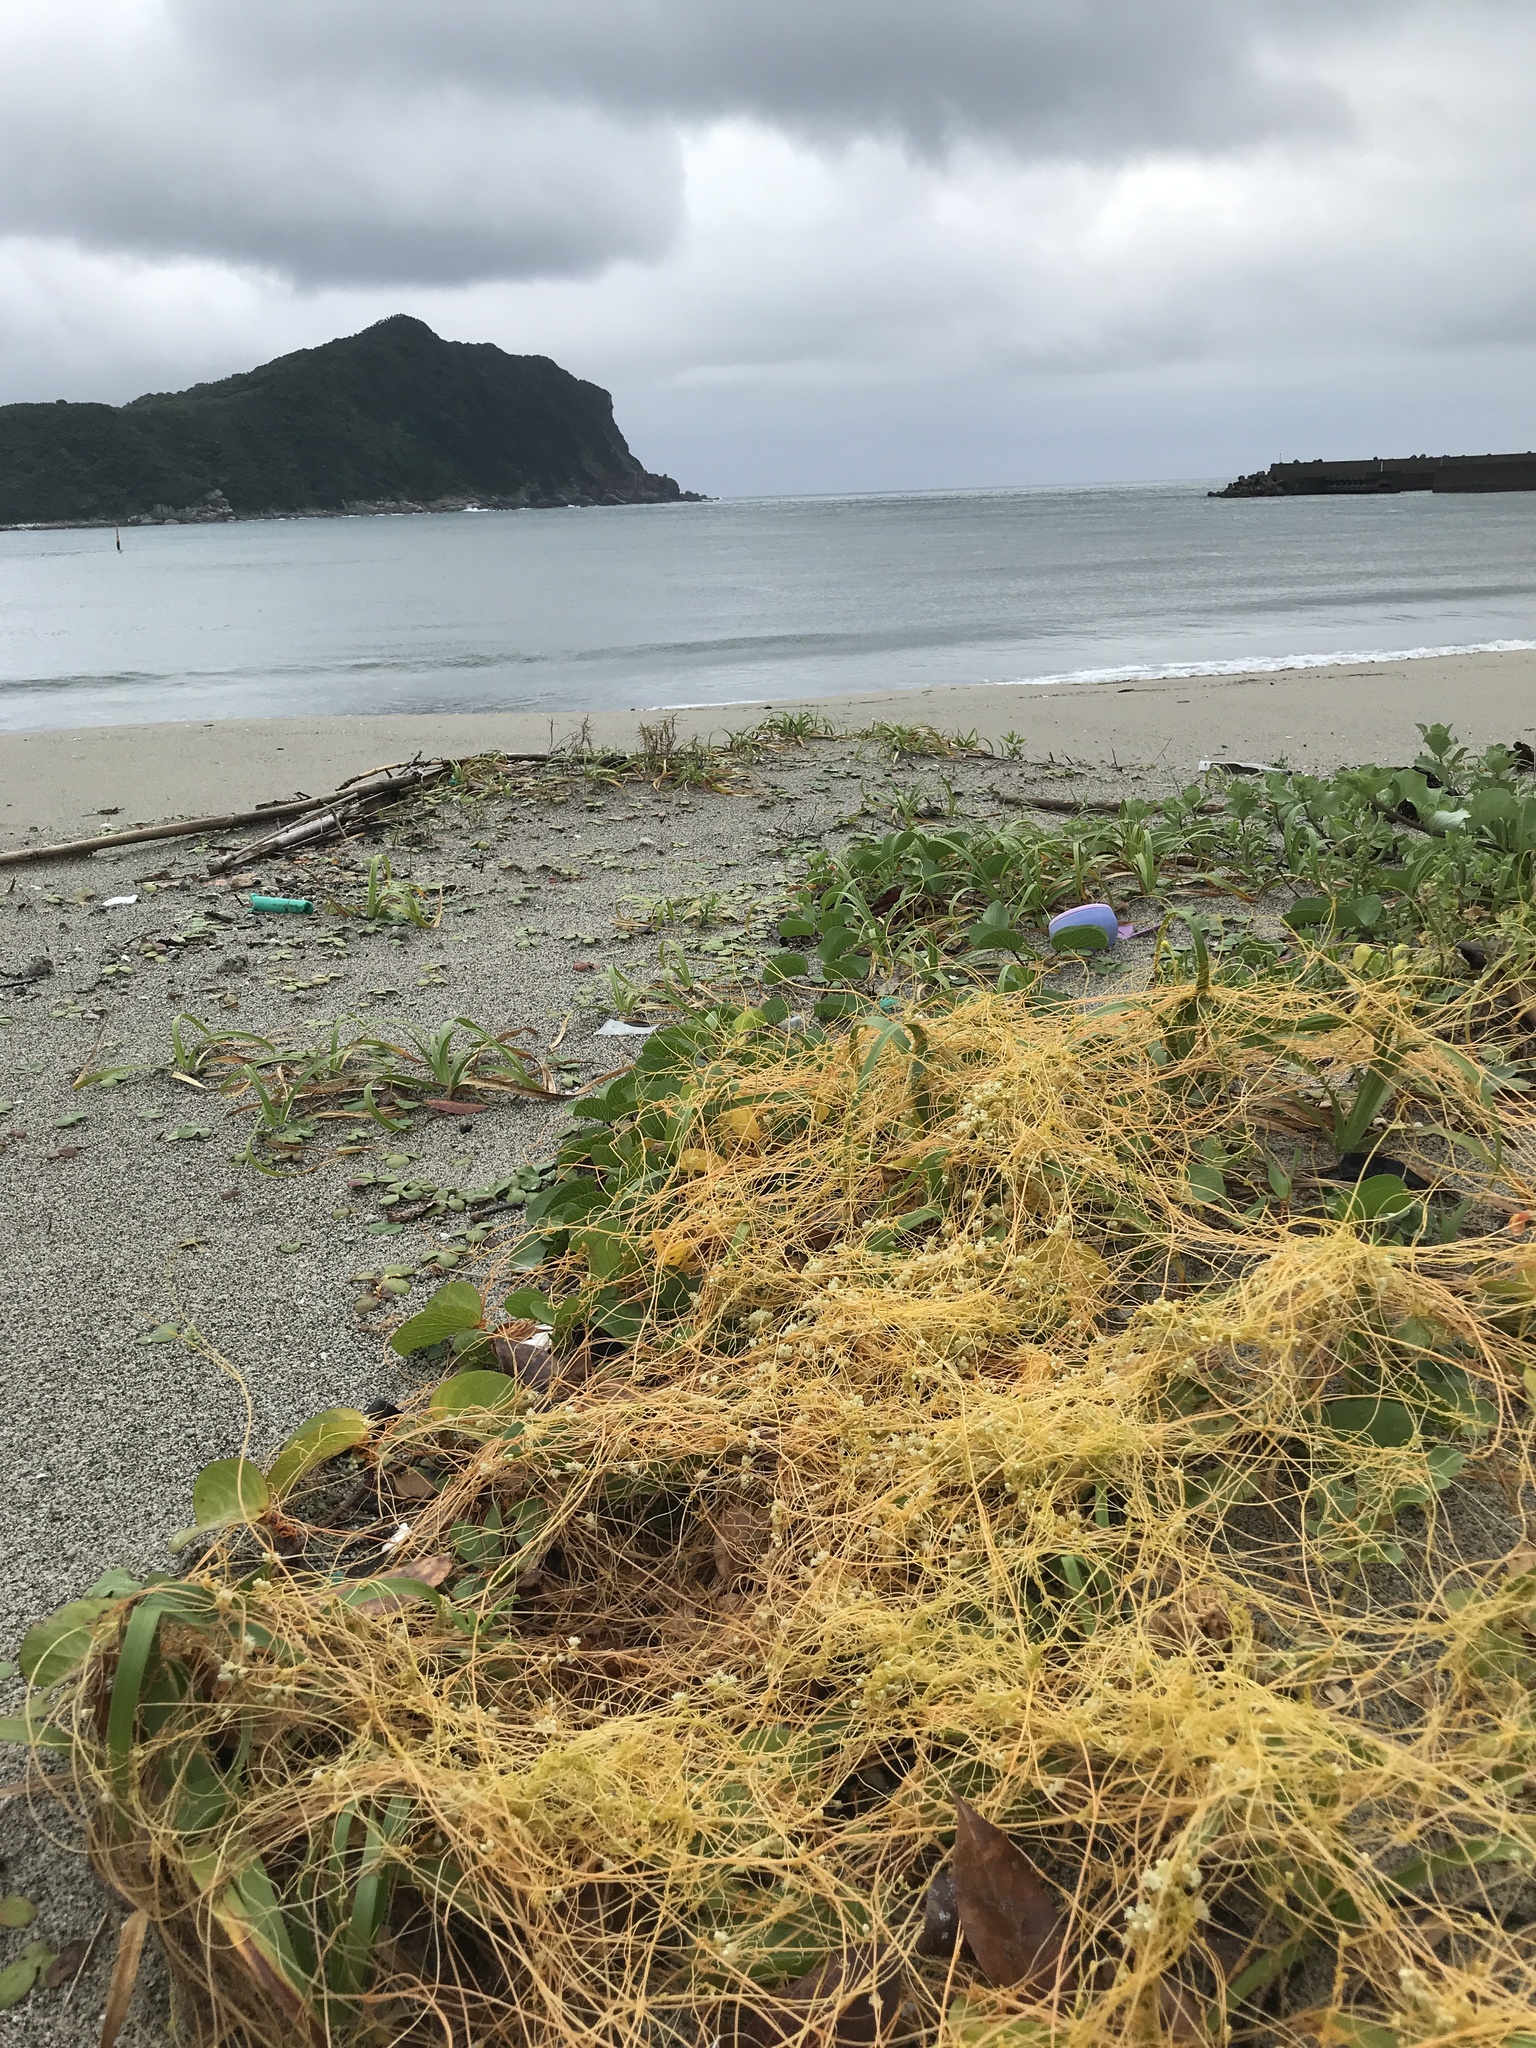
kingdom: Plantae
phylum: Tracheophyta
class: Magnoliopsida
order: Solanales
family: Convolvulaceae
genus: Cuscuta
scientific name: Cuscuta campestris
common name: Yellow dodder
